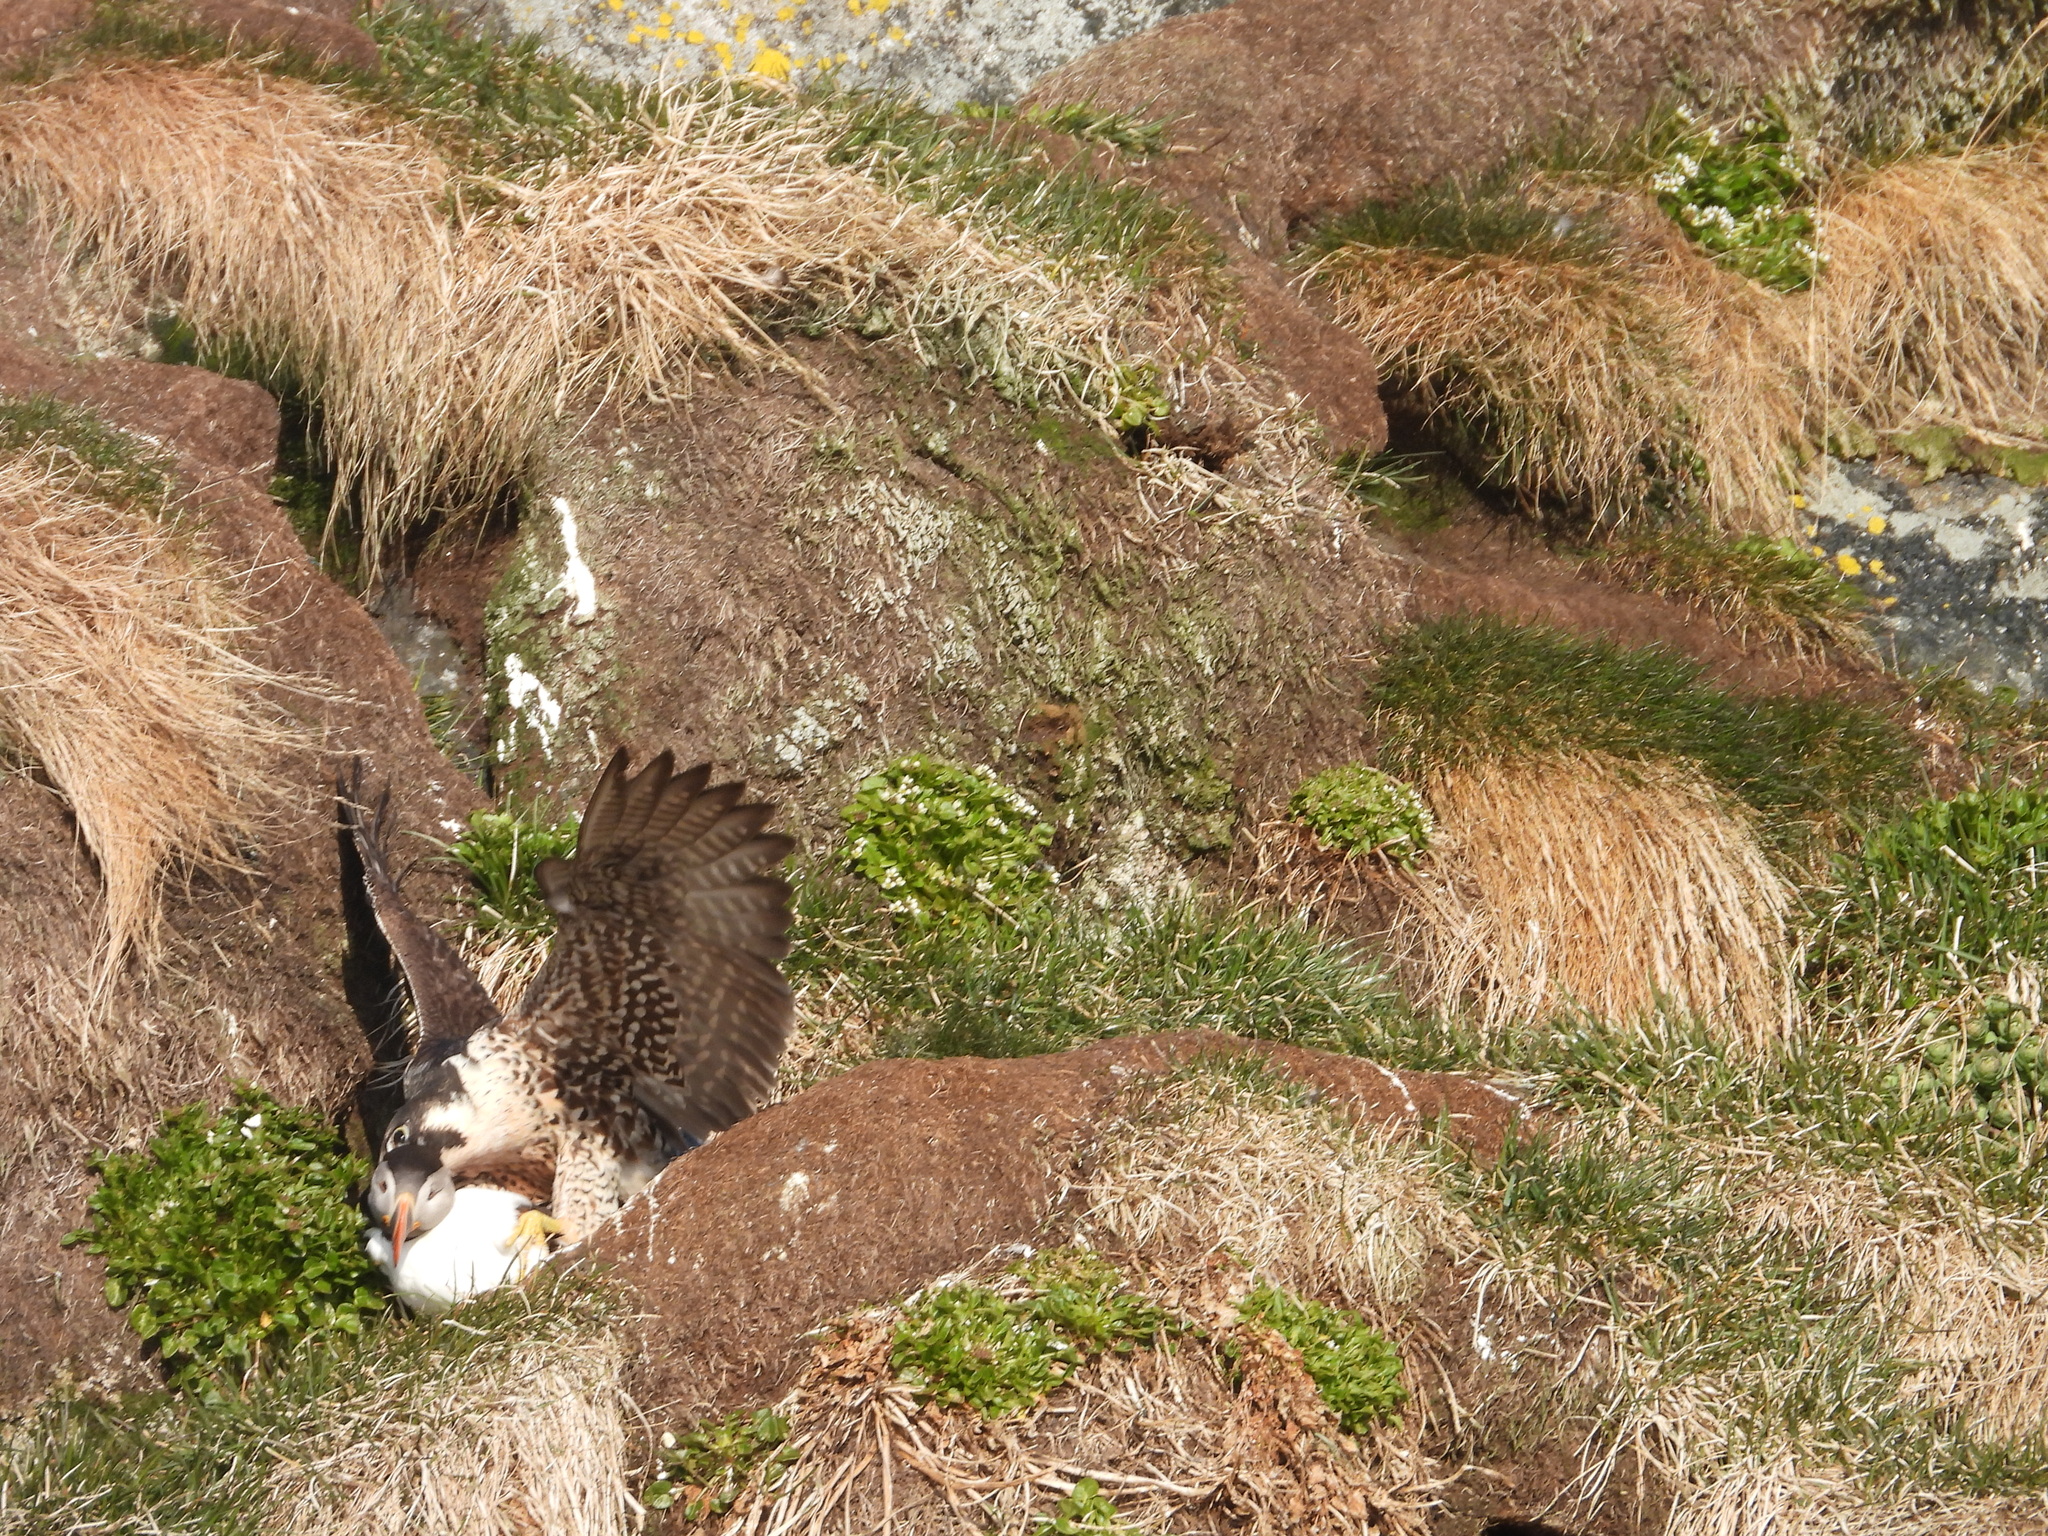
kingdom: Animalia
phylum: Chordata
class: Aves
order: Falconiformes
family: Falconidae
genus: Falco
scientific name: Falco peregrinus
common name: Peregrine falcon
